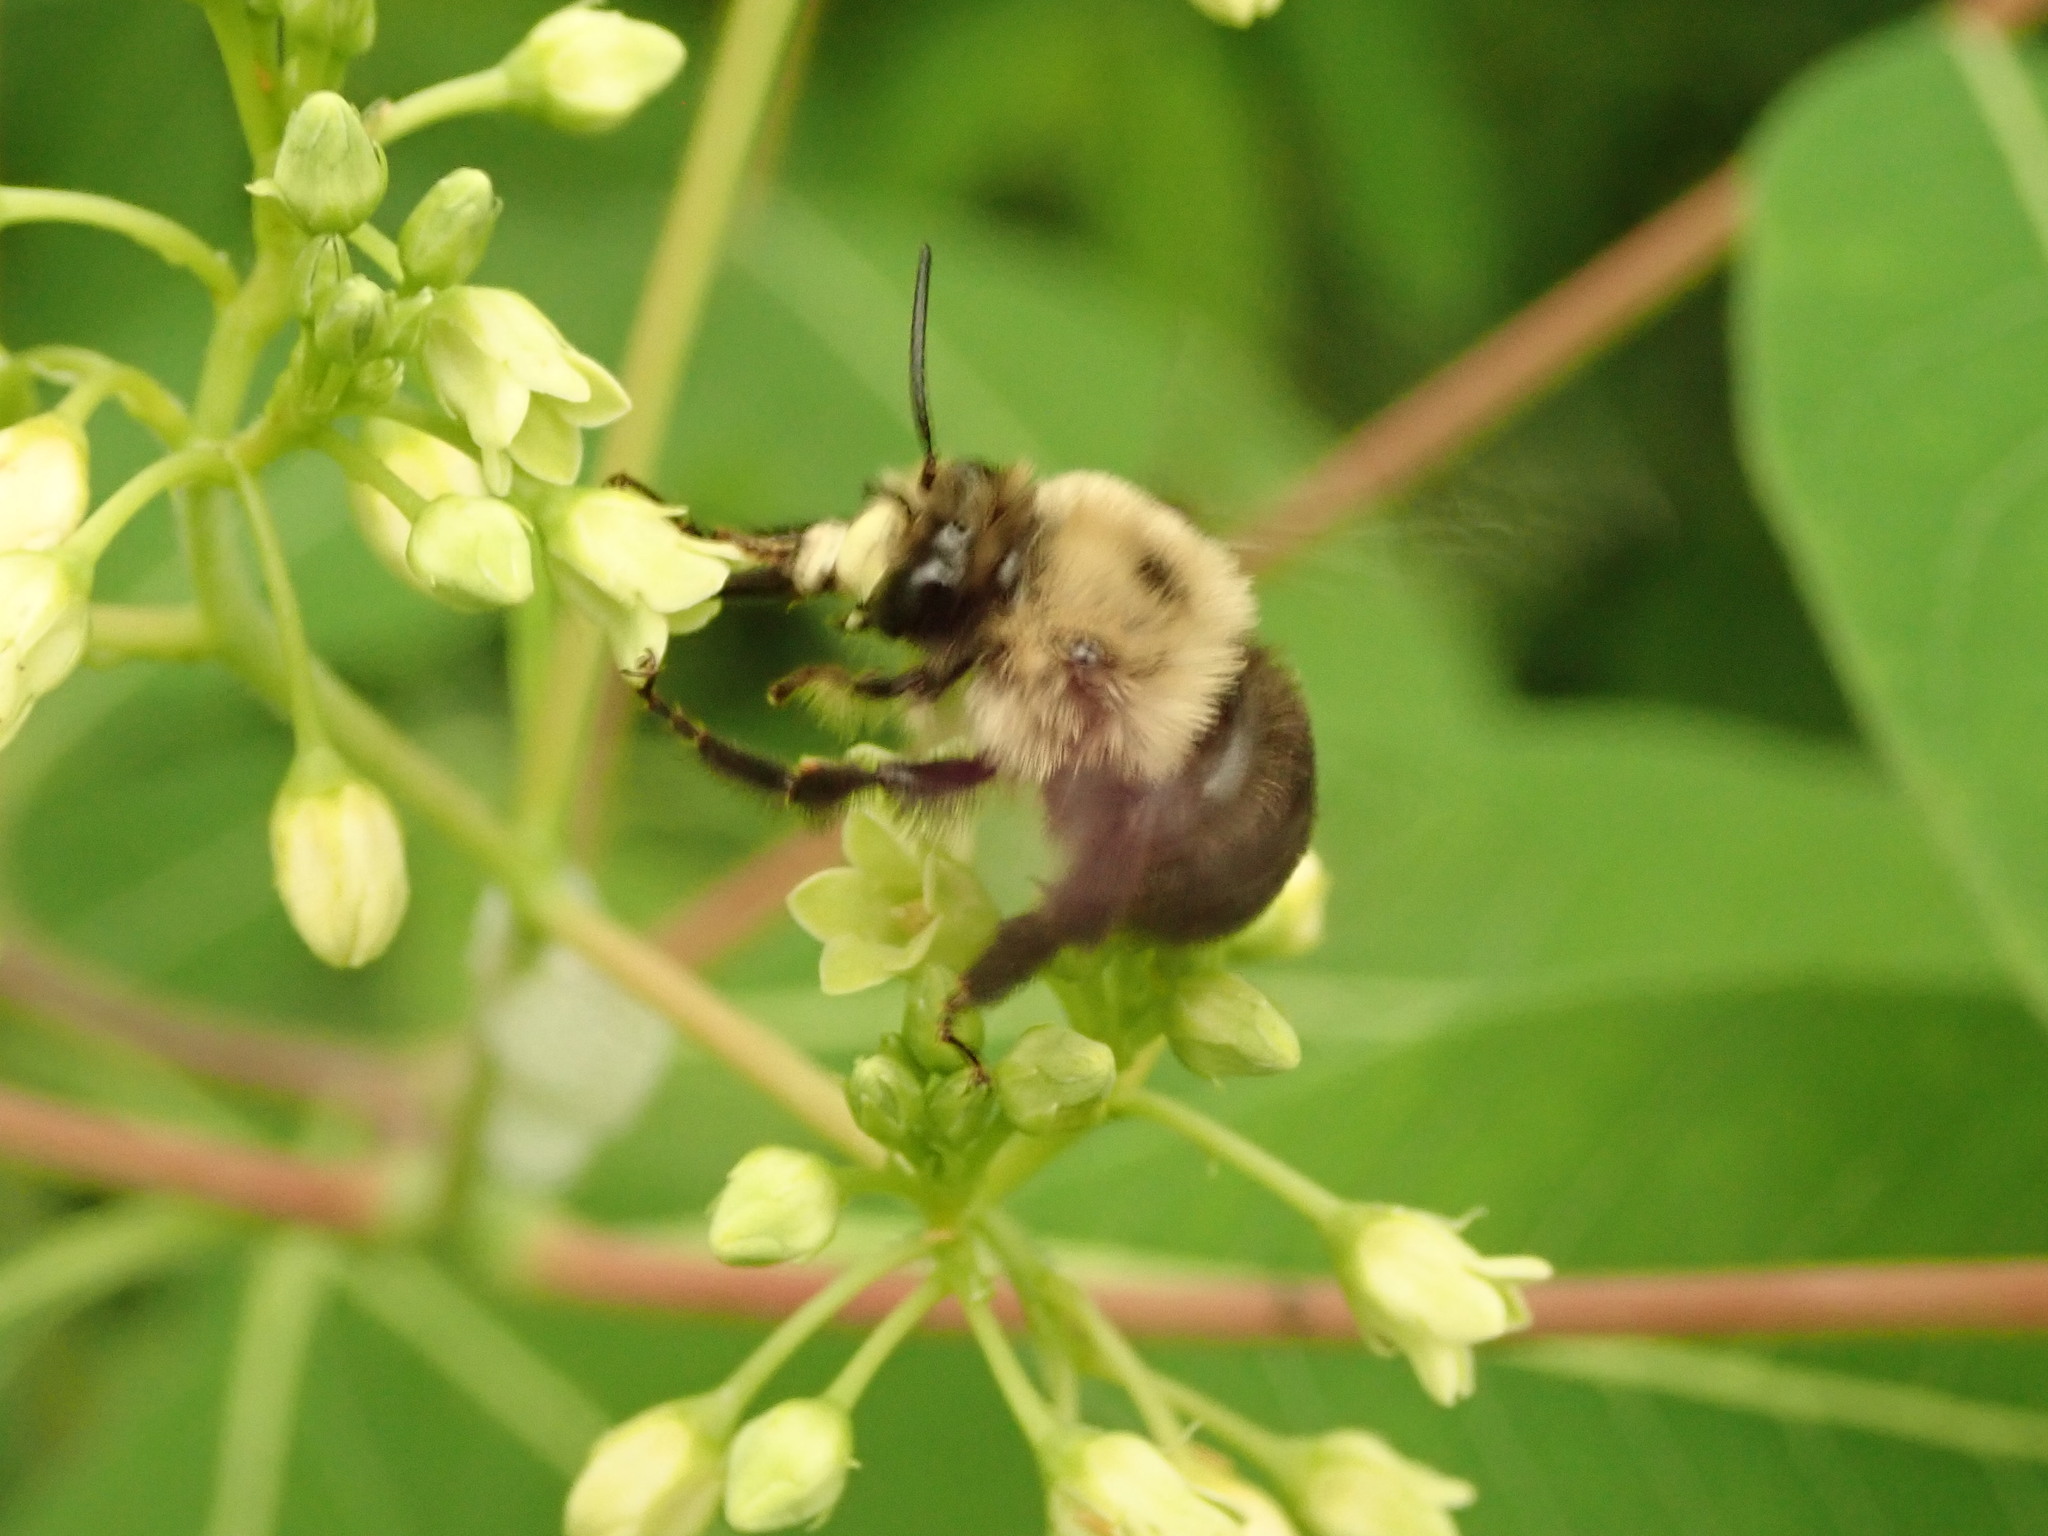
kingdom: Animalia
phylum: Arthropoda
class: Insecta
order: Hymenoptera
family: Apidae
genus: Anthophora
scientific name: Anthophora abrupta
